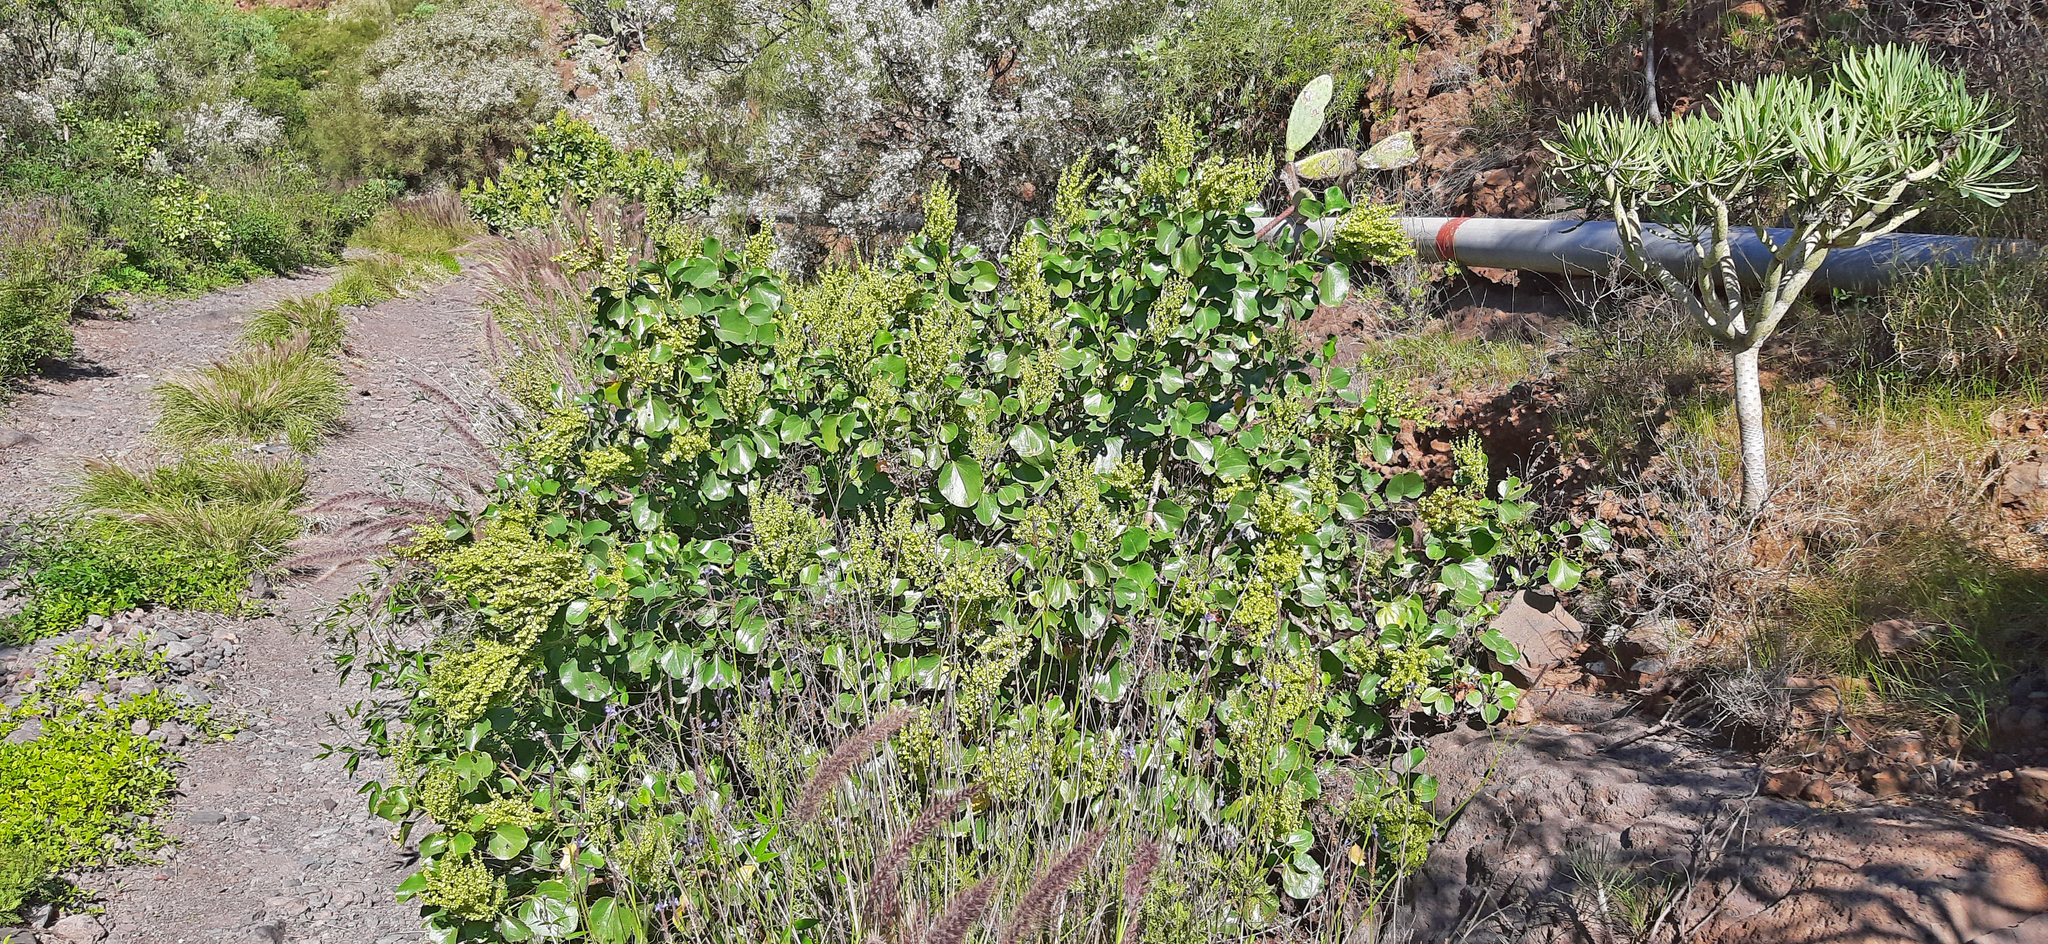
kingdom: Plantae
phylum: Tracheophyta
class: Magnoliopsida
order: Caryophyllales
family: Polygonaceae
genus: Rumex
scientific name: Rumex lunaria
